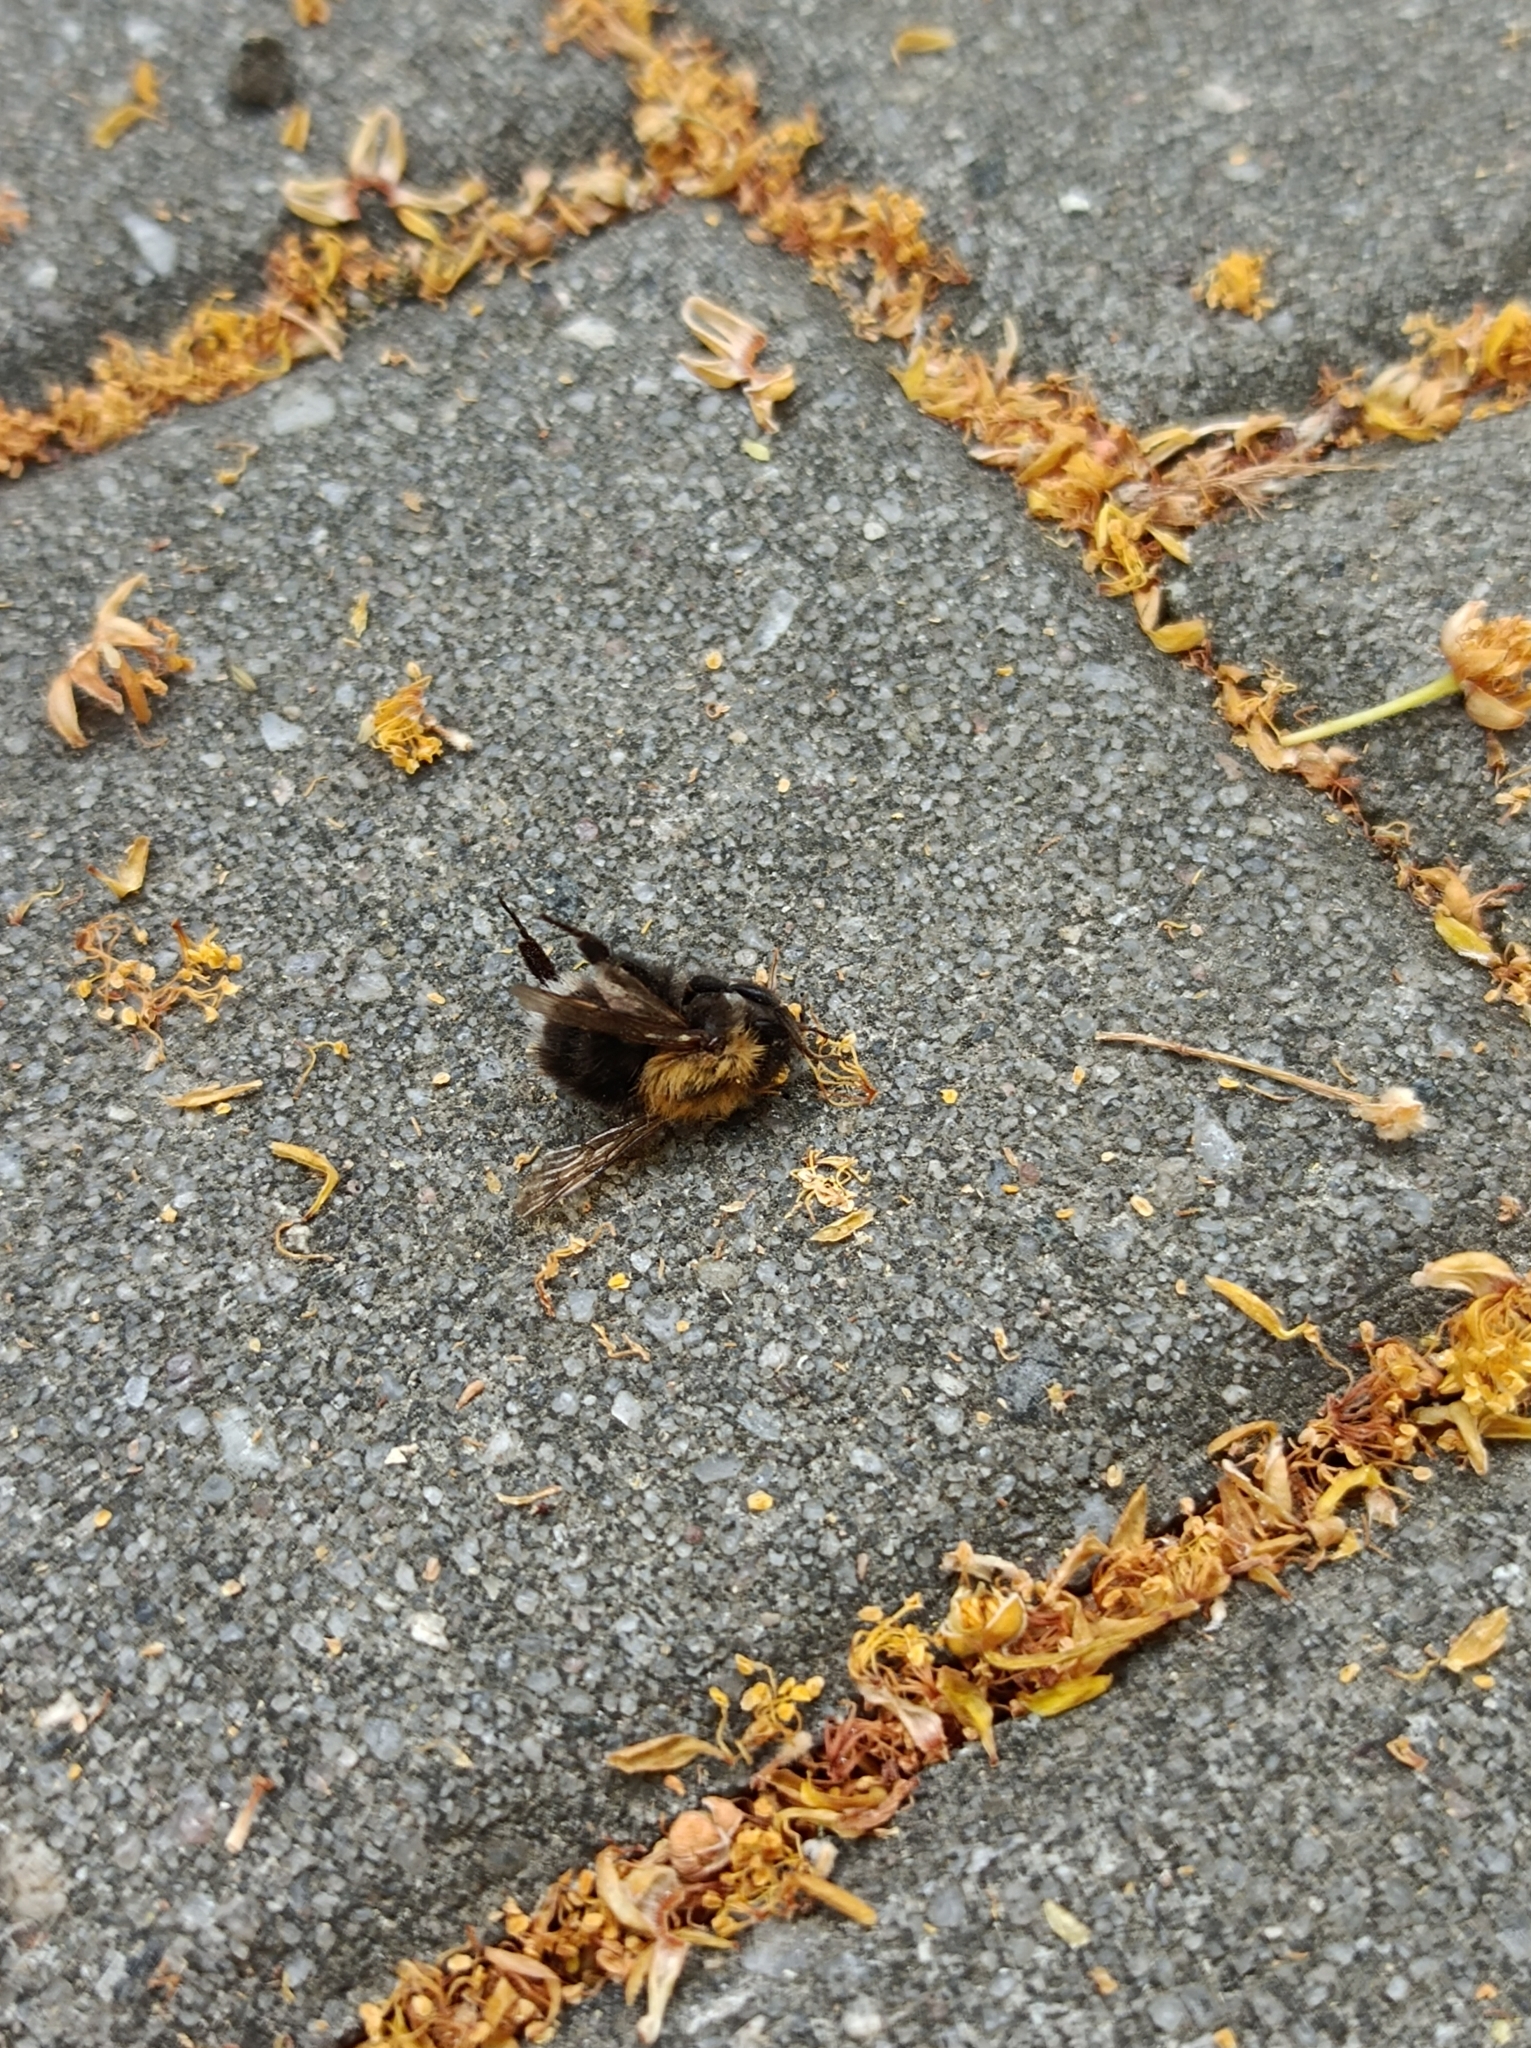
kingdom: Animalia
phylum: Arthropoda
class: Insecta
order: Hymenoptera
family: Apidae
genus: Bombus
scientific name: Bombus hypnorum
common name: New garden bumblebee
